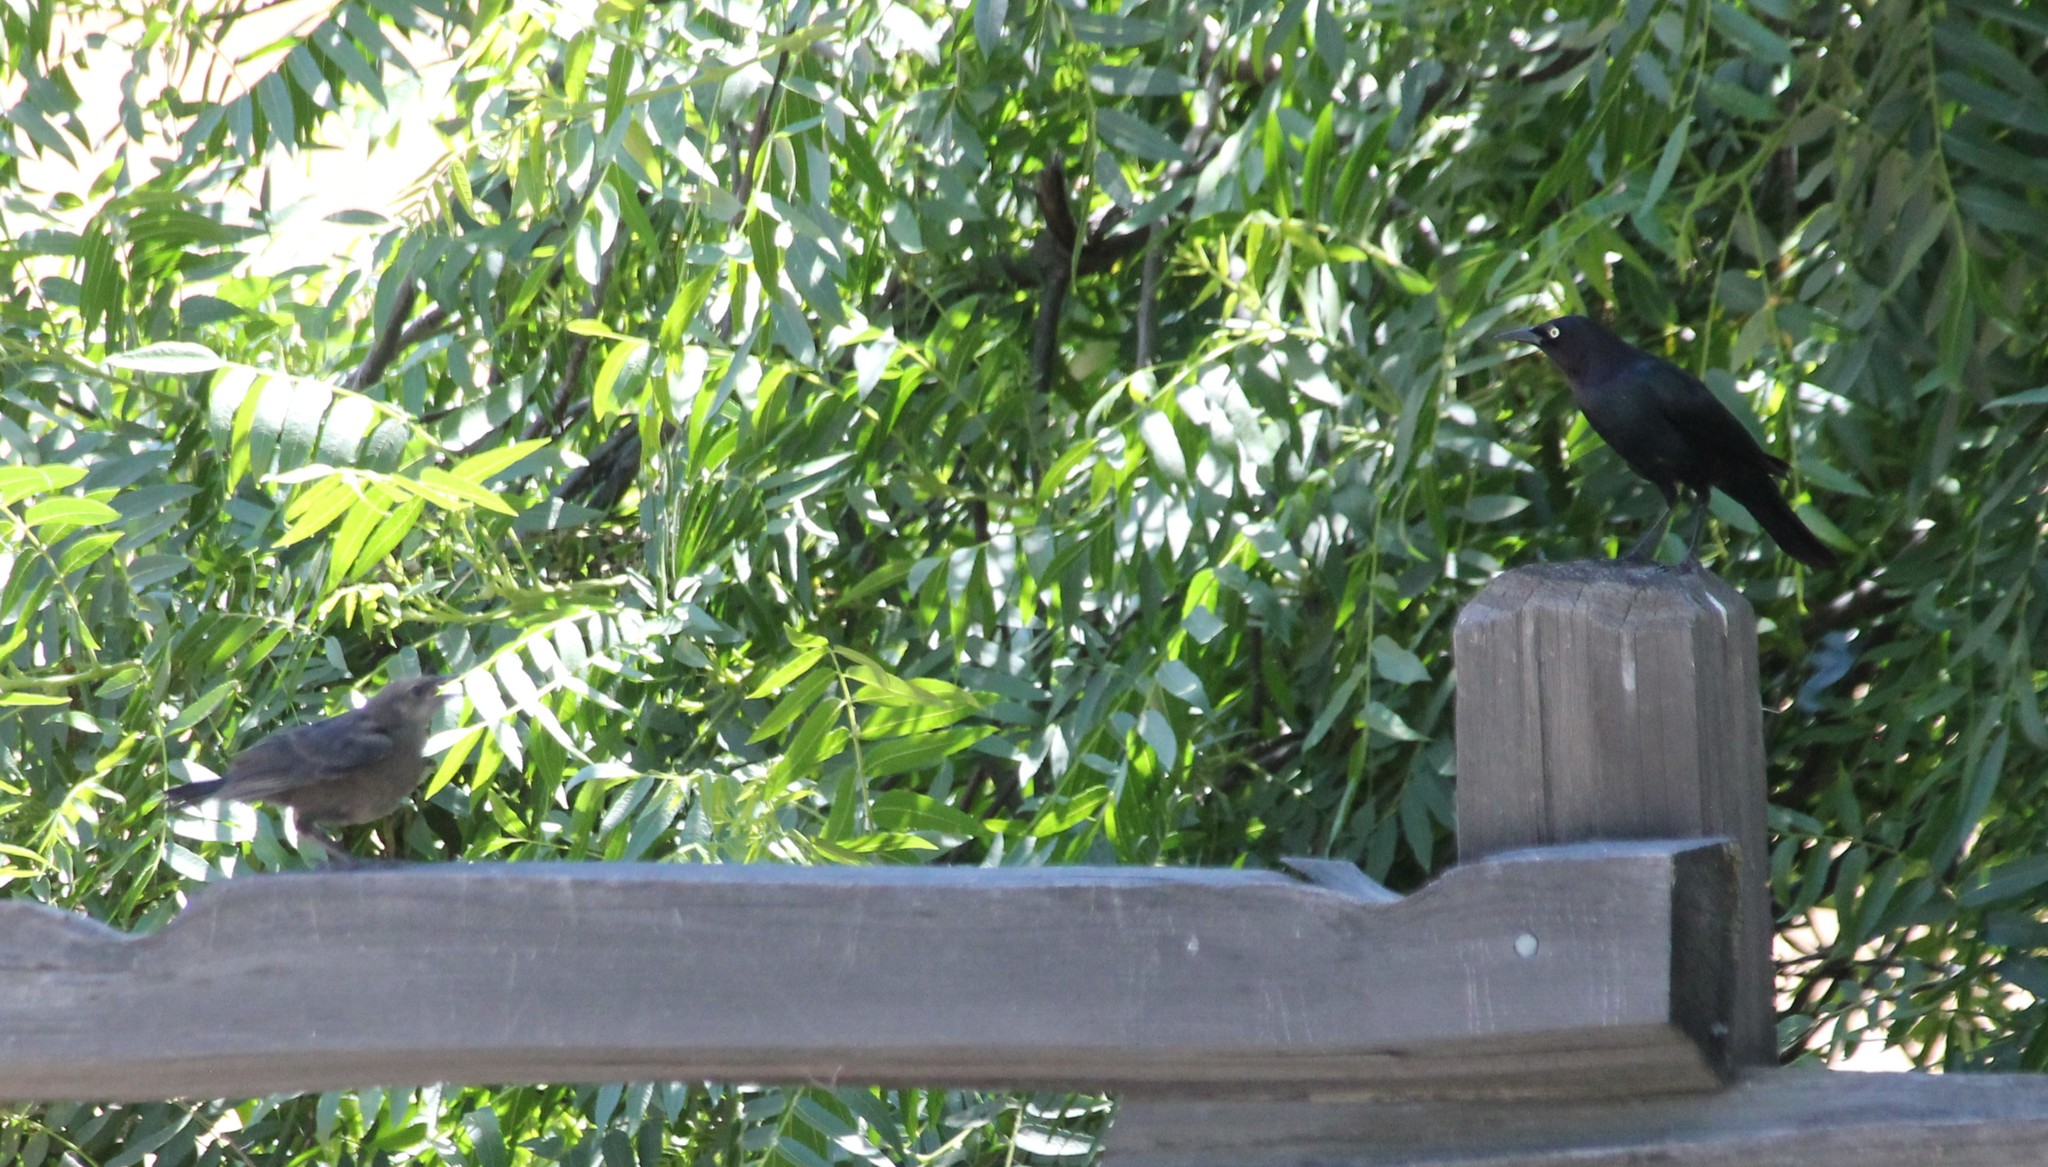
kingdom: Animalia
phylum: Chordata
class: Aves
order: Passeriformes
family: Icteridae
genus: Euphagus
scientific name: Euphagus cyanocephalus
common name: Brewer's blackbird
